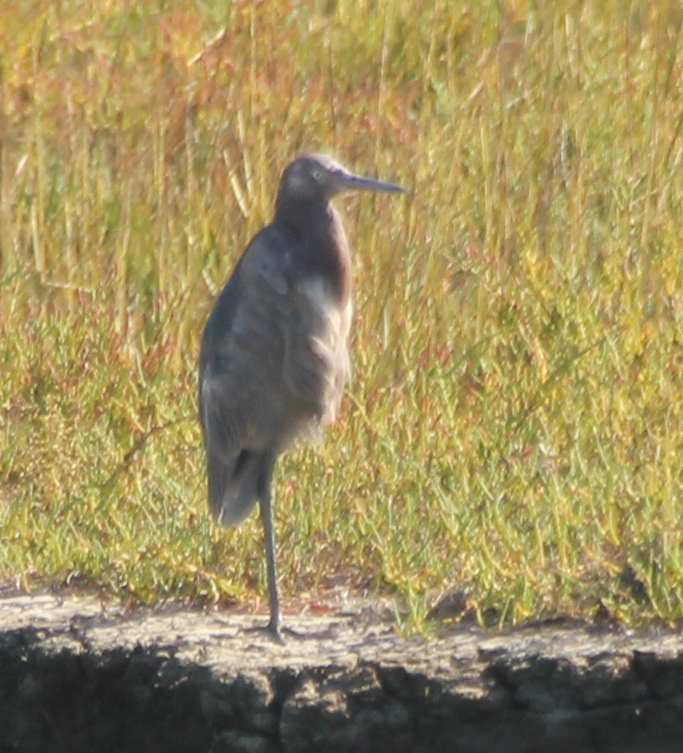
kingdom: Animalia
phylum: Chordata
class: Aves
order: Pelecaniformes
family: Ardeidae
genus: Egretta
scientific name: Egretta rufescens
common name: Reddish egret
